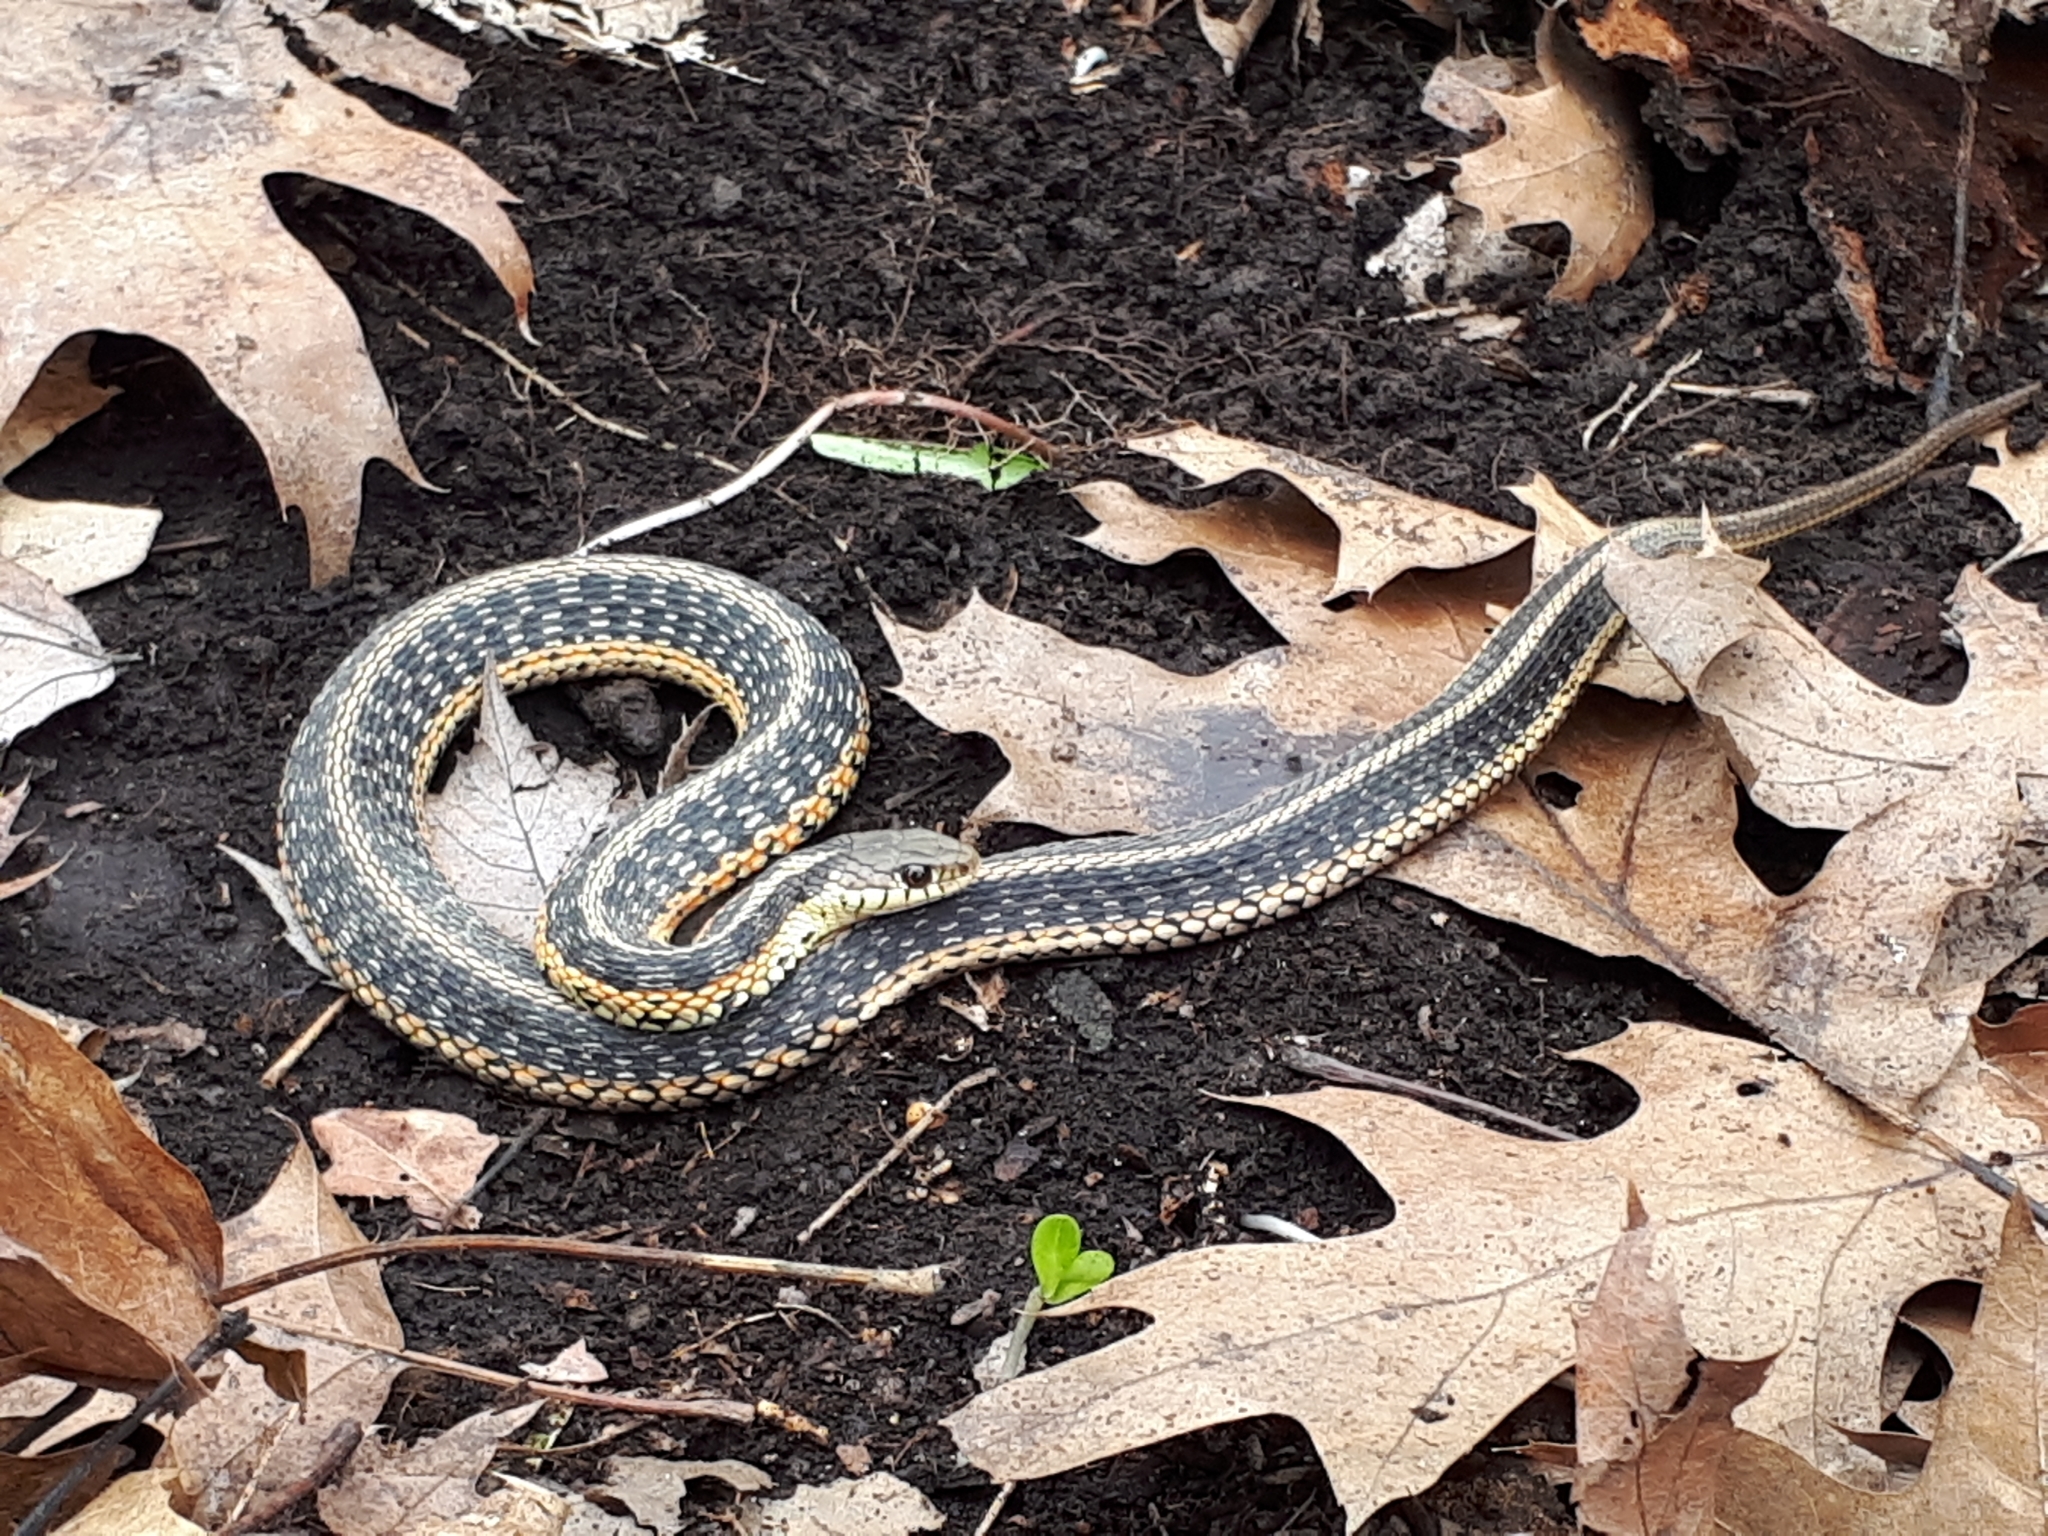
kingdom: Animalia
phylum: Chordata
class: Squamata
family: Colubridae
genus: Thamnophis
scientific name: Thamnophis sirtalis
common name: Common garter snake
